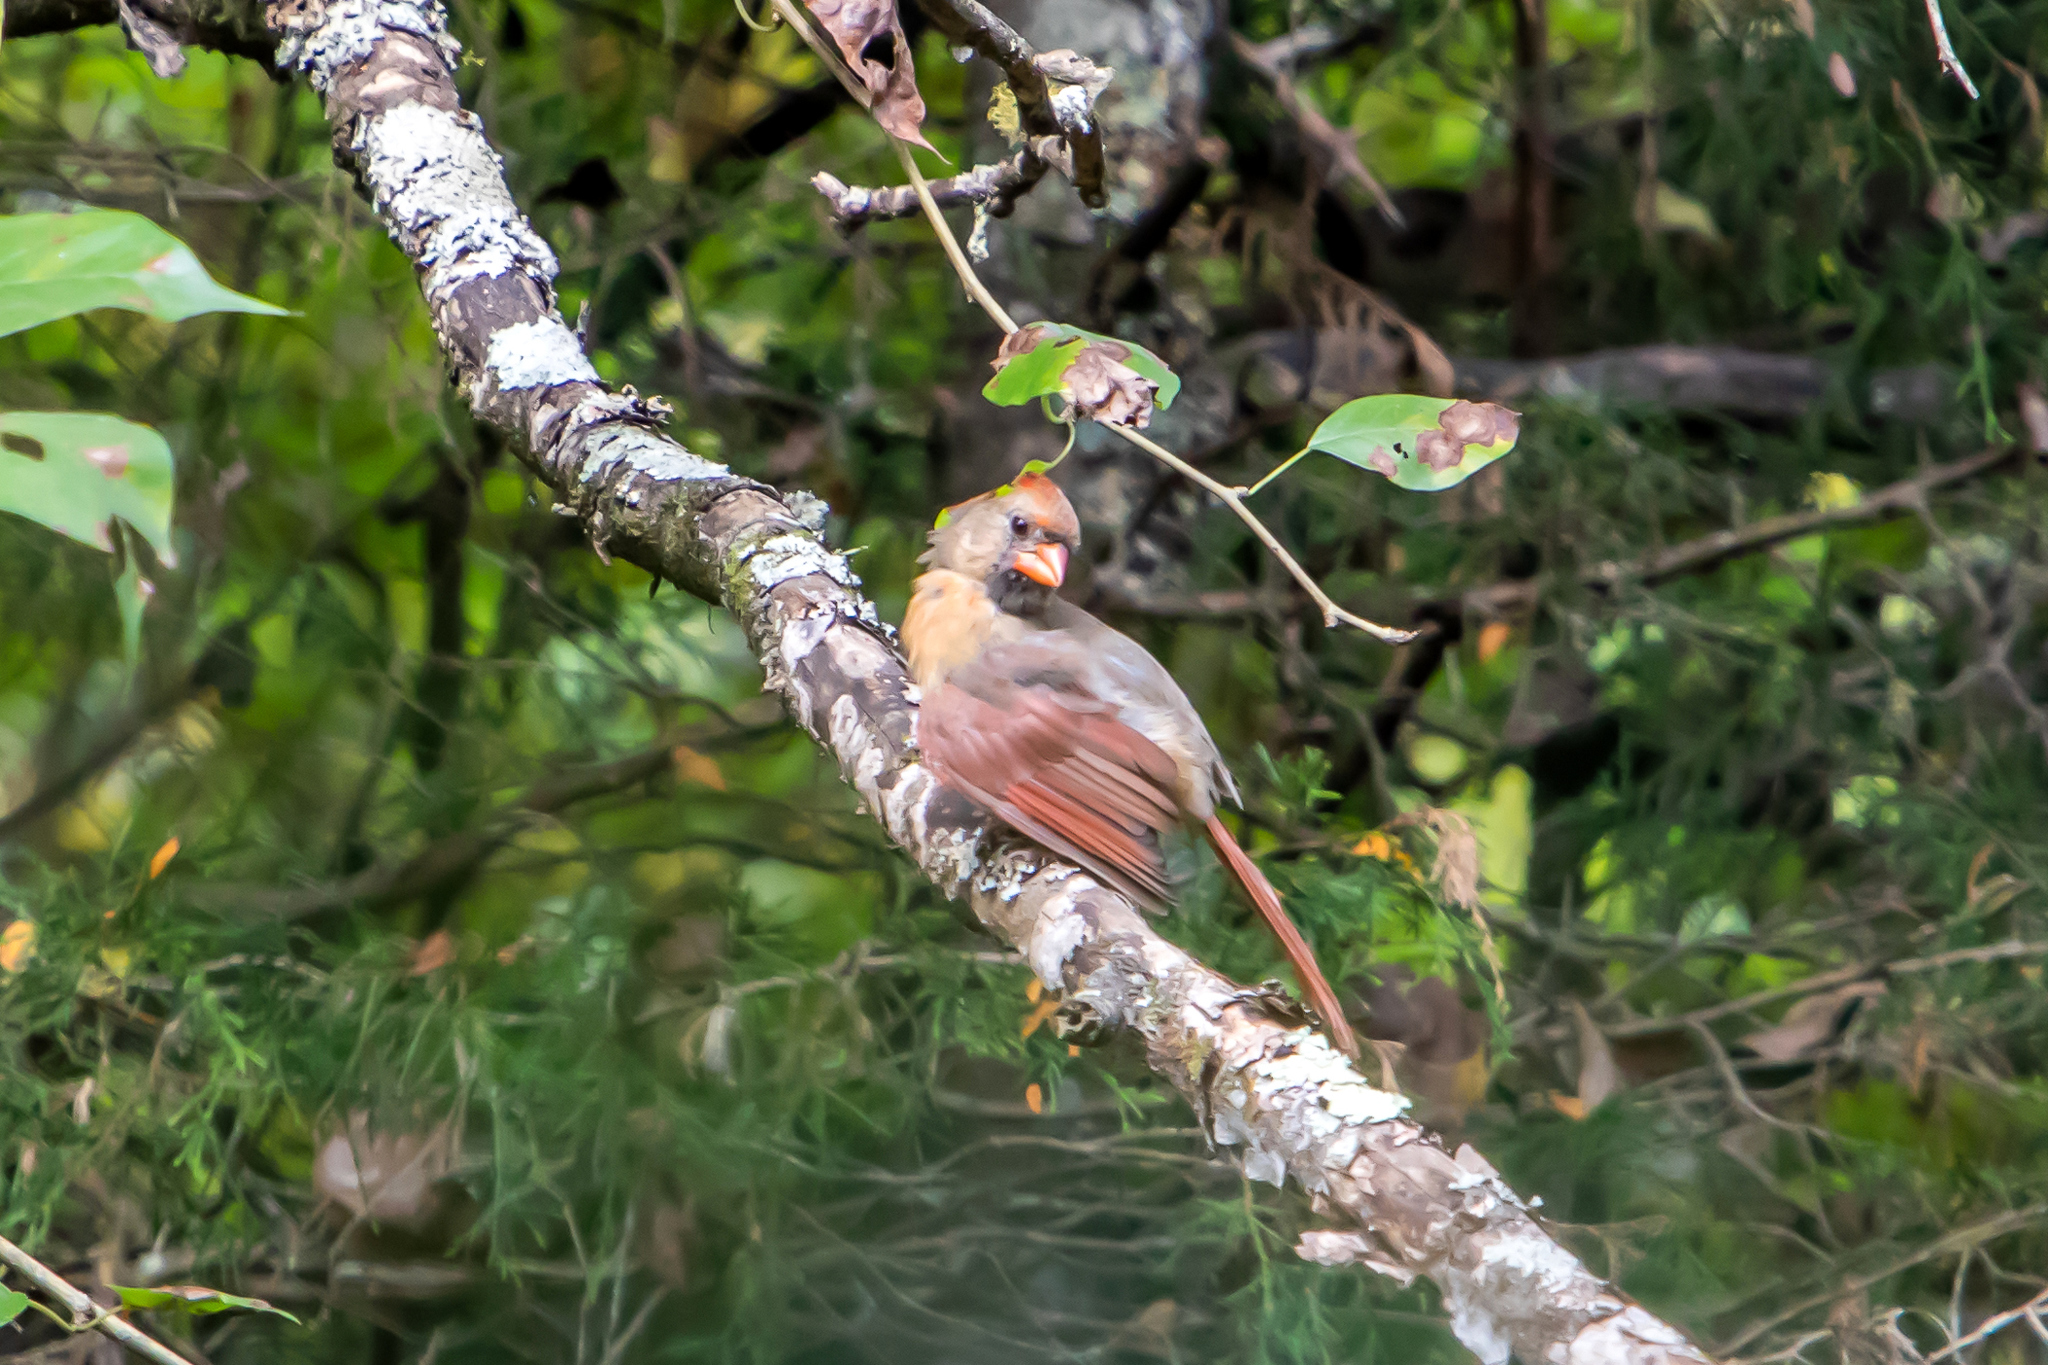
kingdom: Animalia
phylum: Chordata
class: Aves
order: Passeriformes
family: Cardinalidae
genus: Cardinalis
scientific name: Cardinalis cardinalis
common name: Northern cardinal
